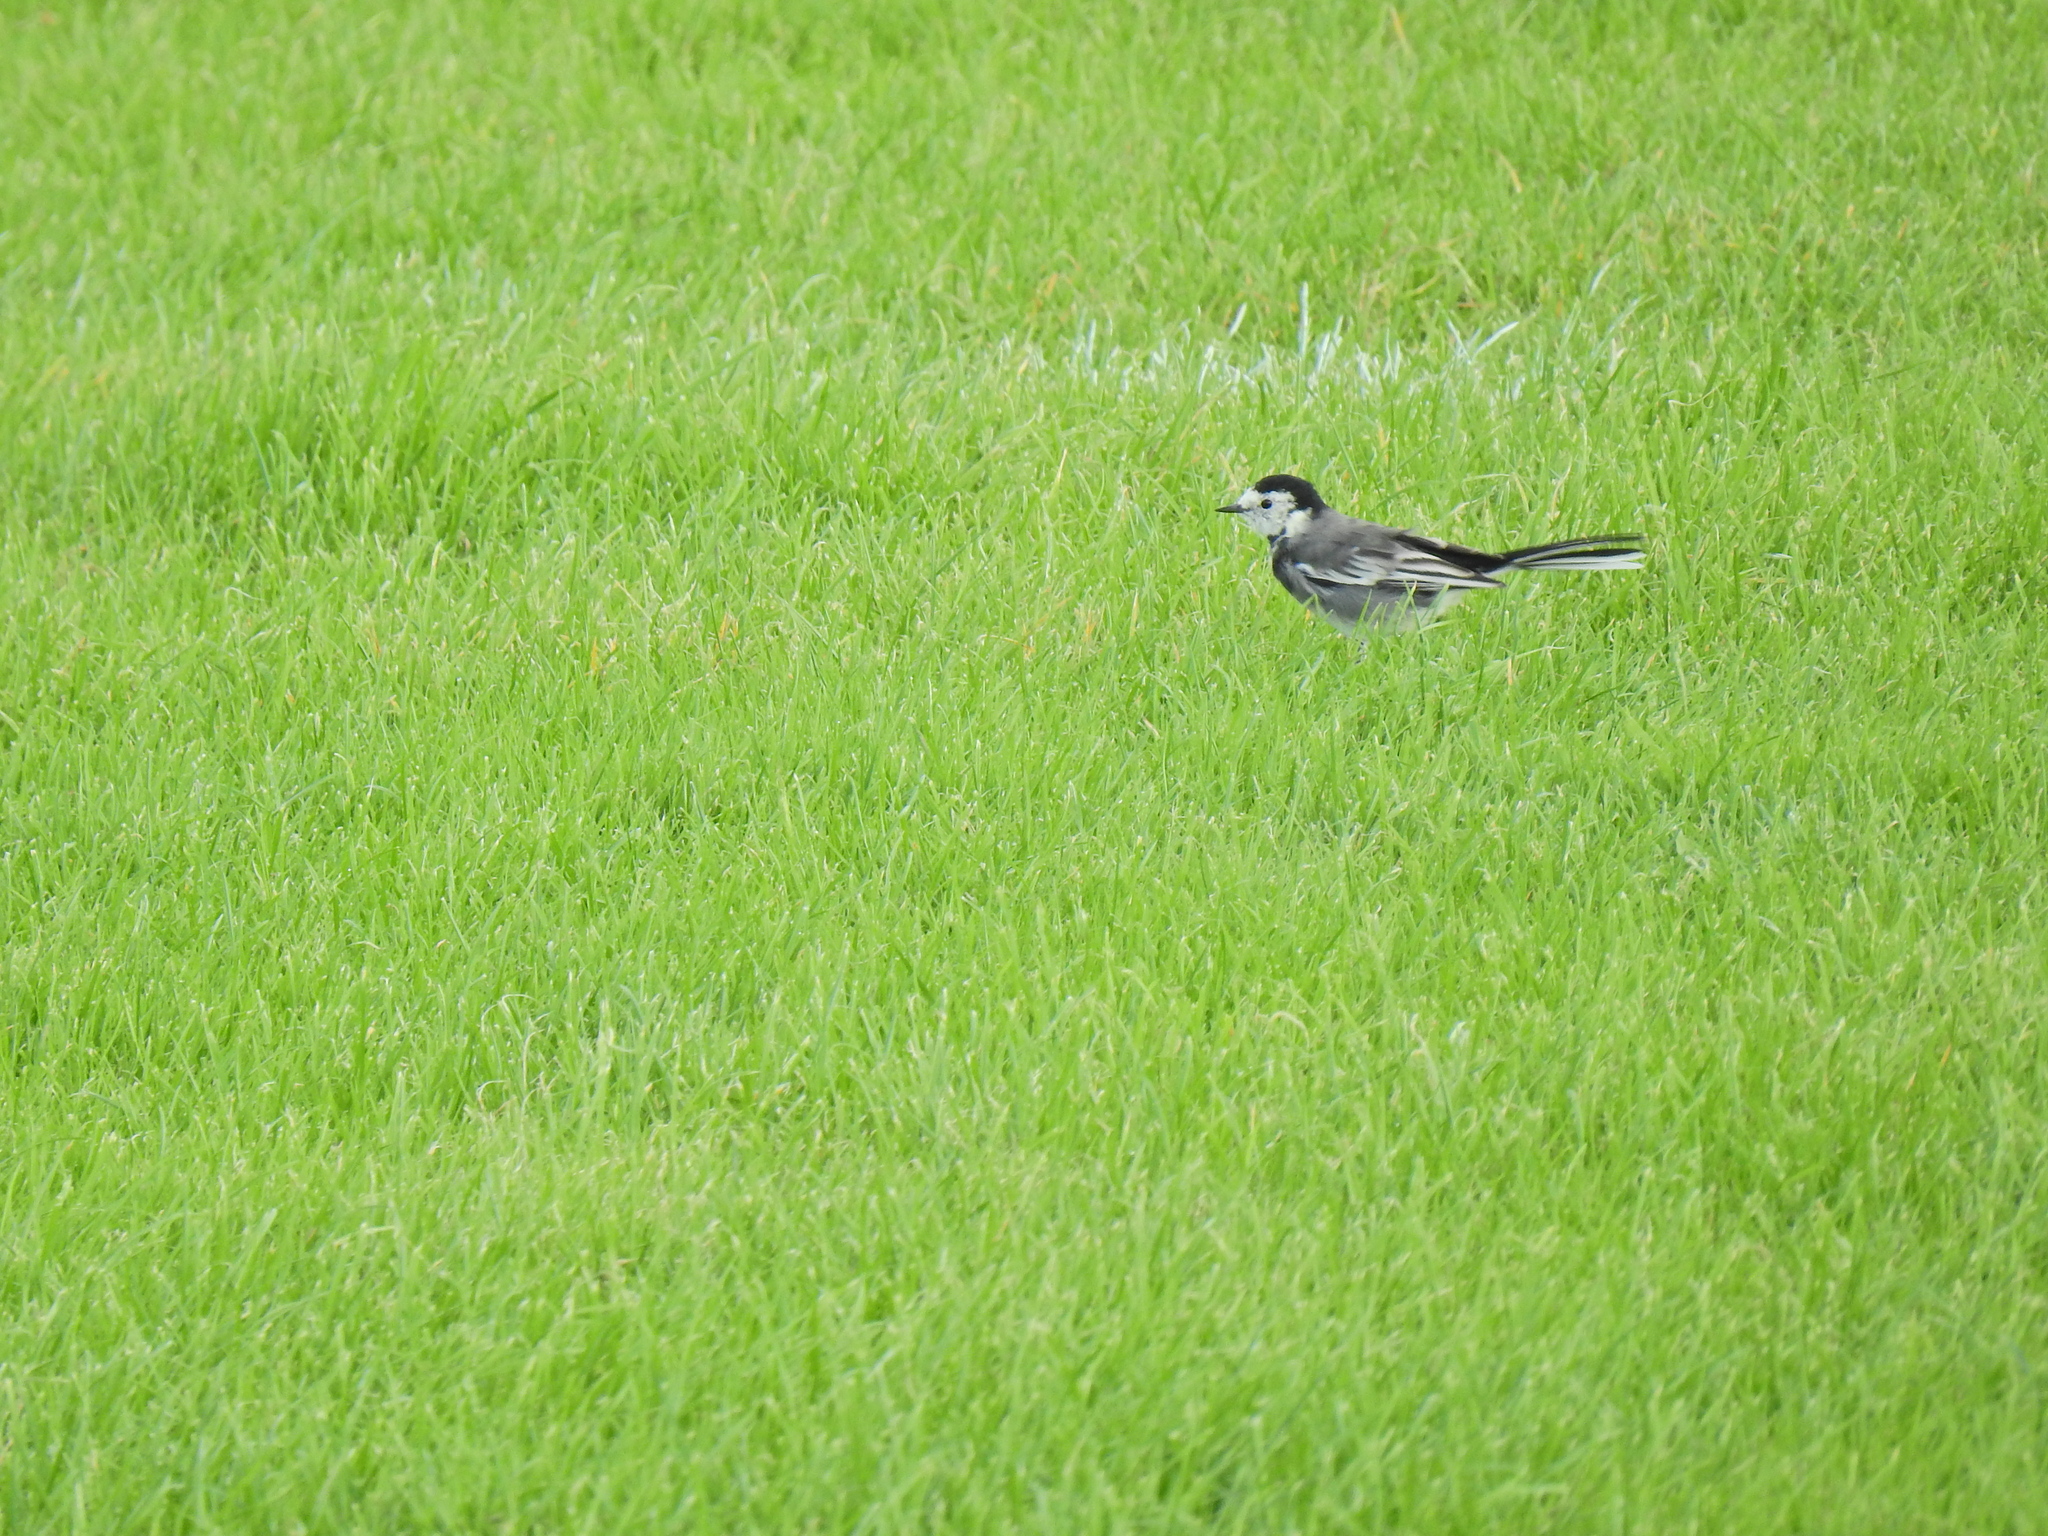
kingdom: Animalia
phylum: Chordata
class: Aves
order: Passeriformes
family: Motacillidae
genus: Motacilla
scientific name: Motacilla alba
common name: White wagtail
